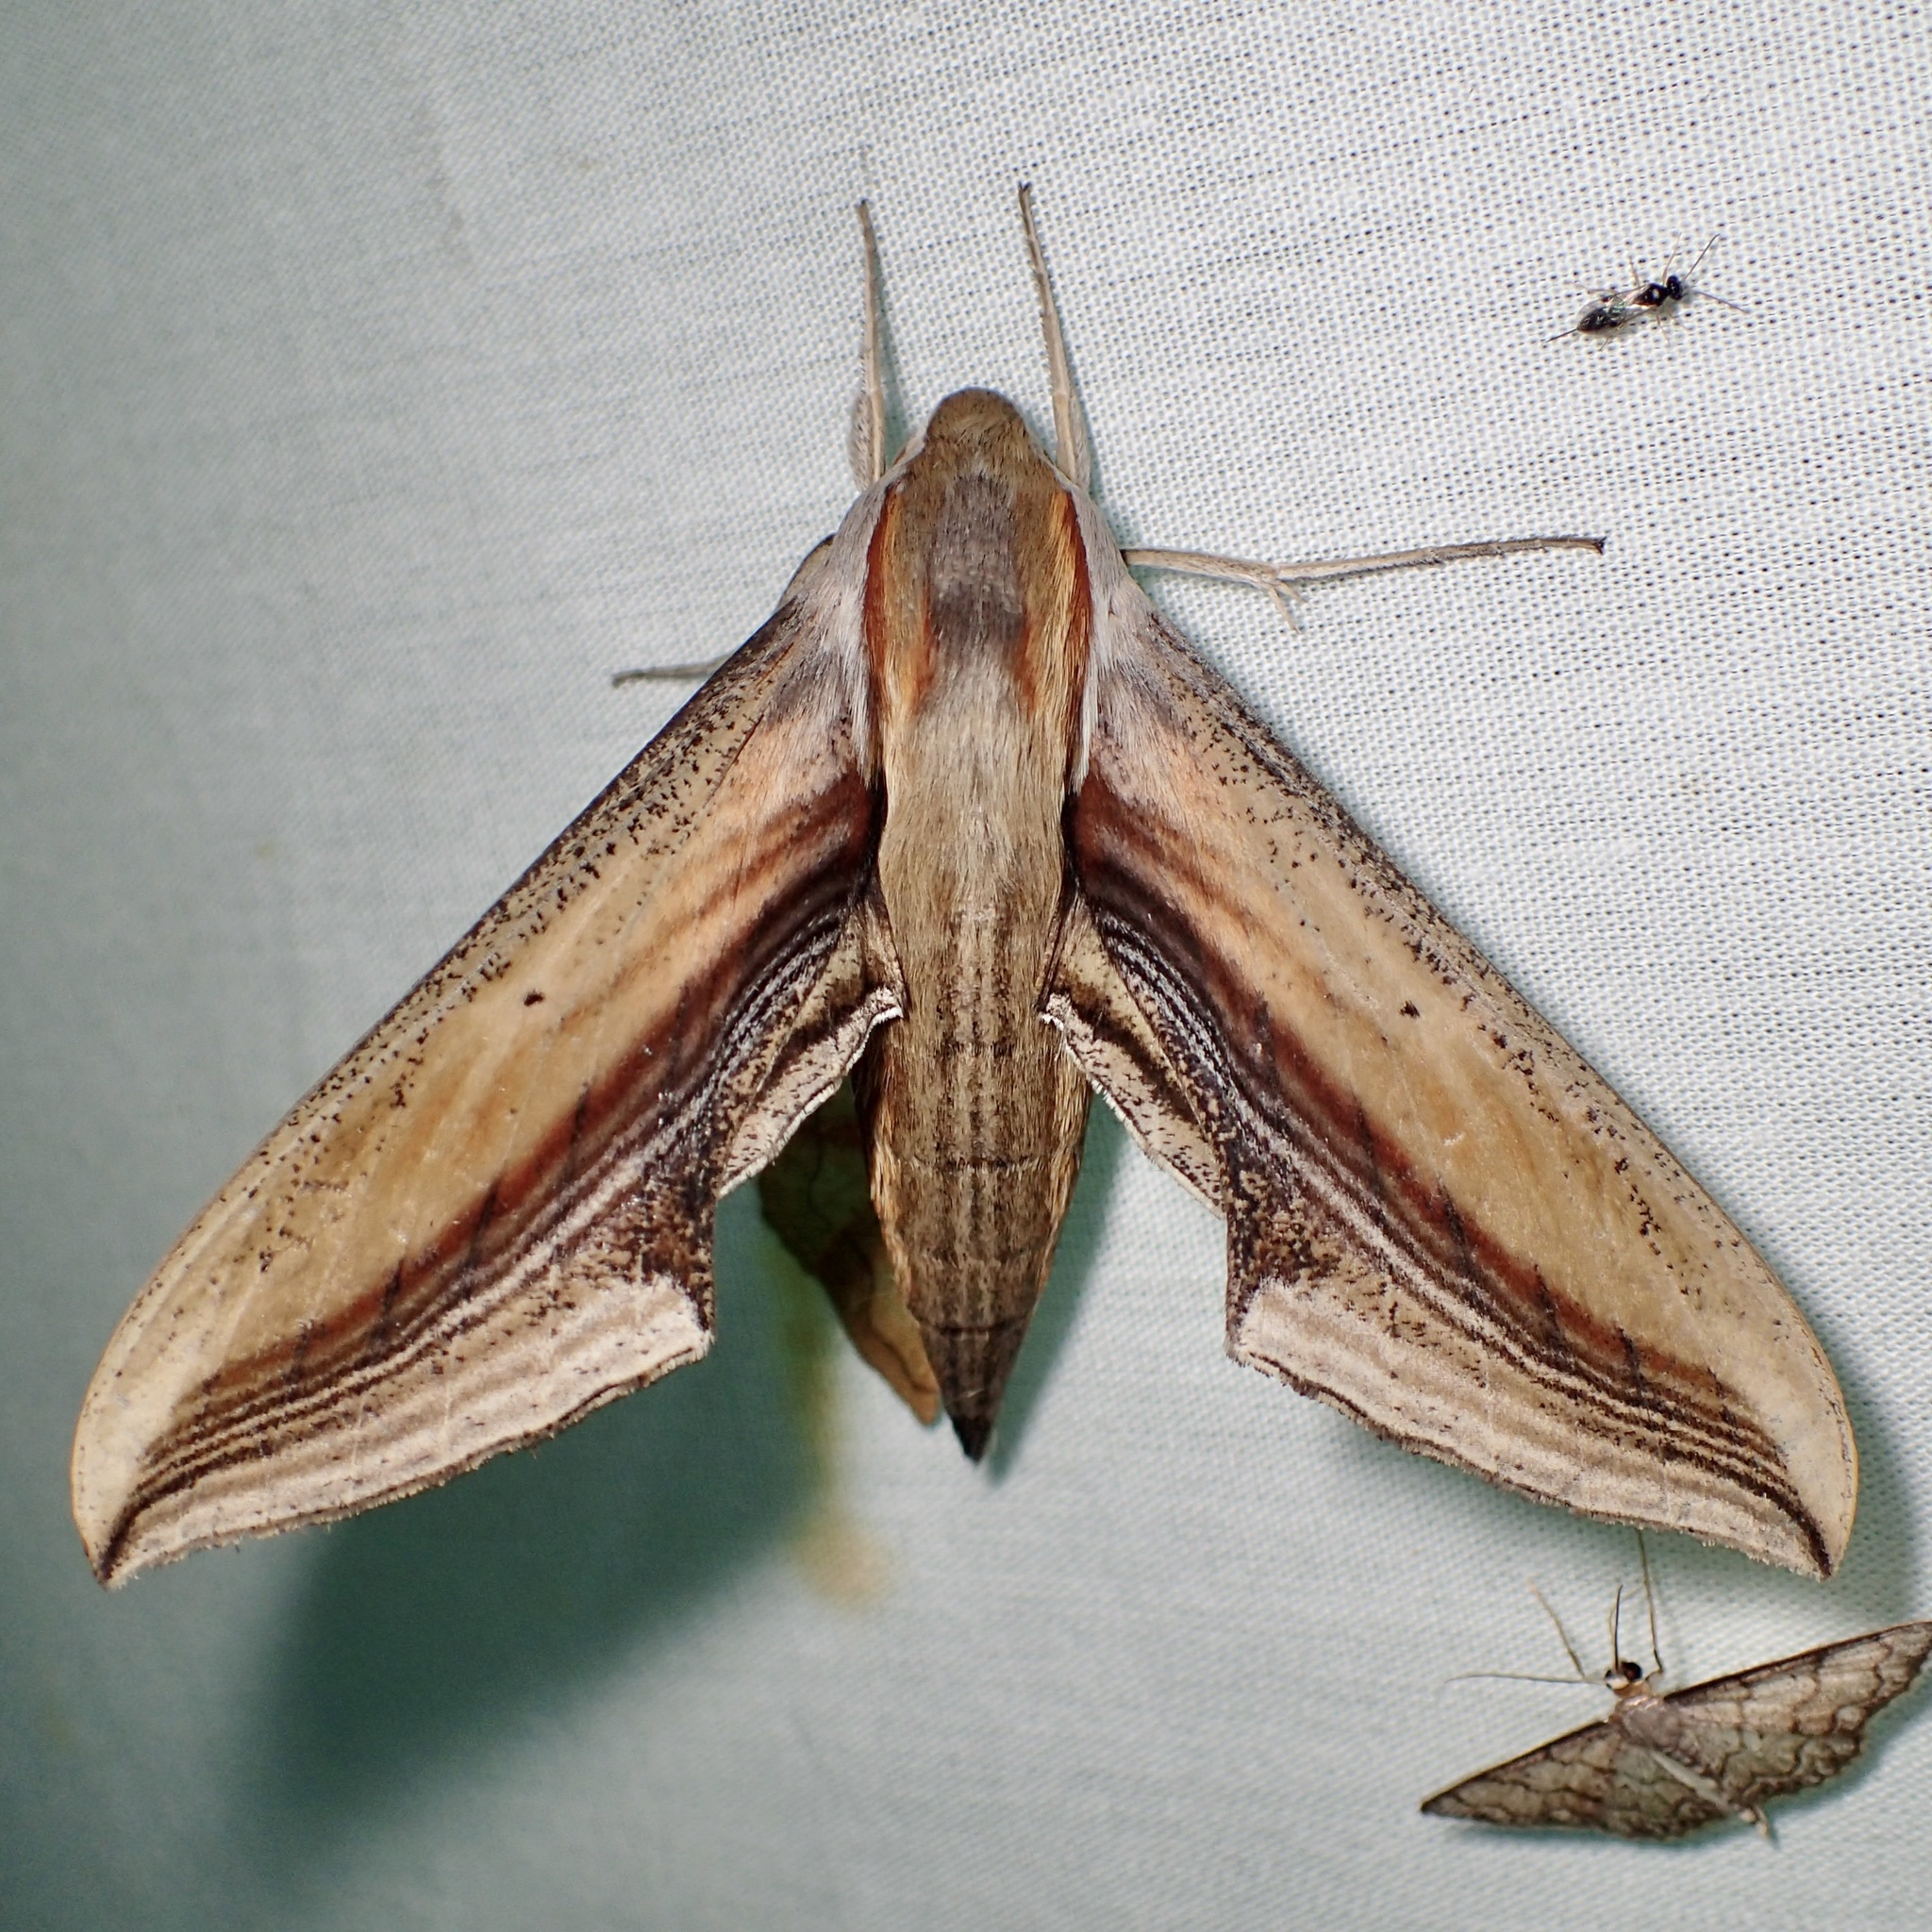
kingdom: Animalia
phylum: Arthropoda
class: Insecta
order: Lepidoptera
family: Sphingidae
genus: Xylophanes
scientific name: Xylophanes falco
